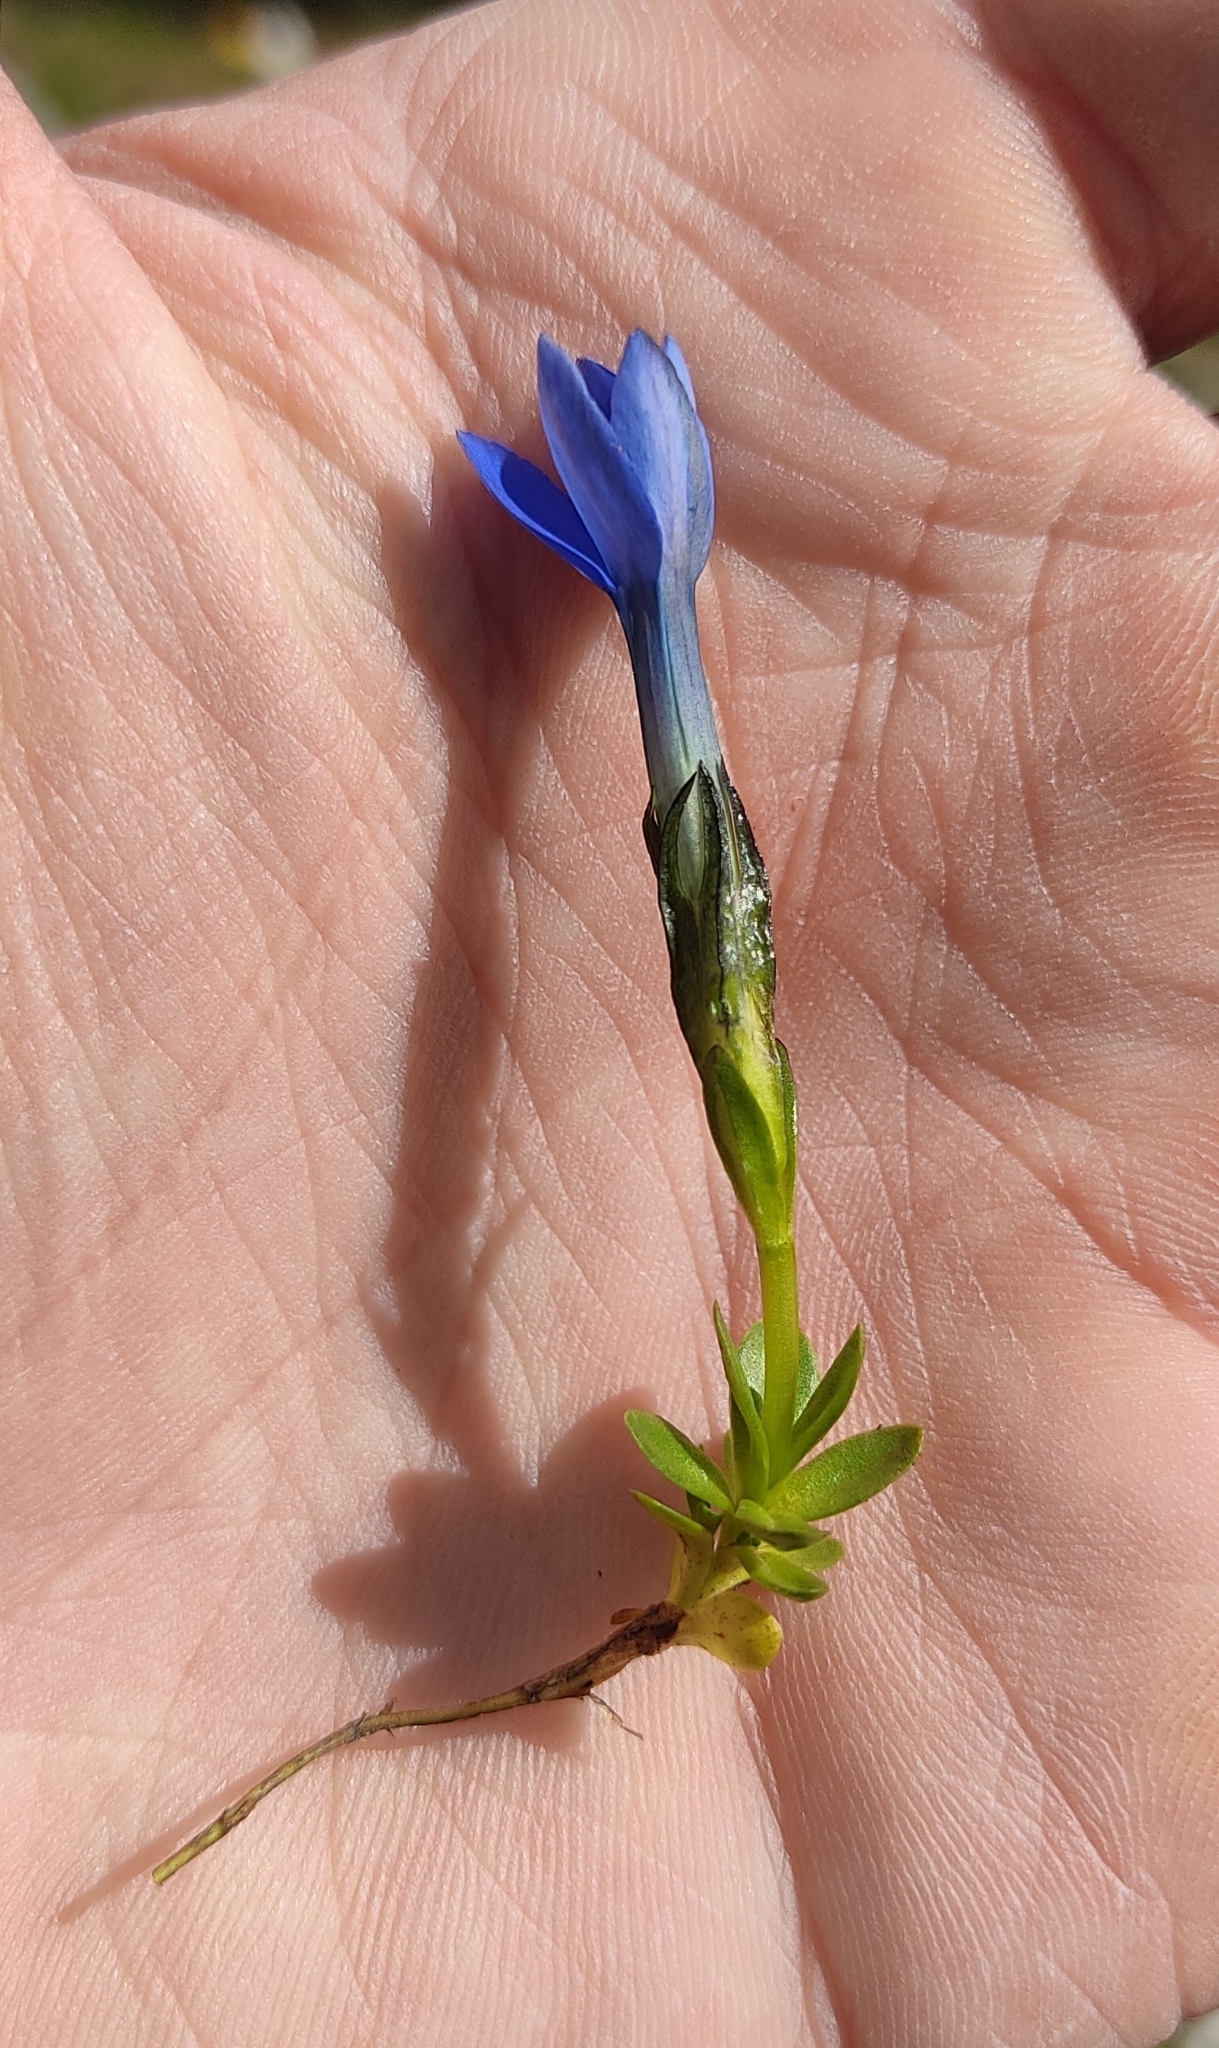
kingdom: Plantae
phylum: Tracheophyta
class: Magnoliopsida
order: Gentianales
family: Gentianaceae
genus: Gentiana
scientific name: Gentiana bavarica
